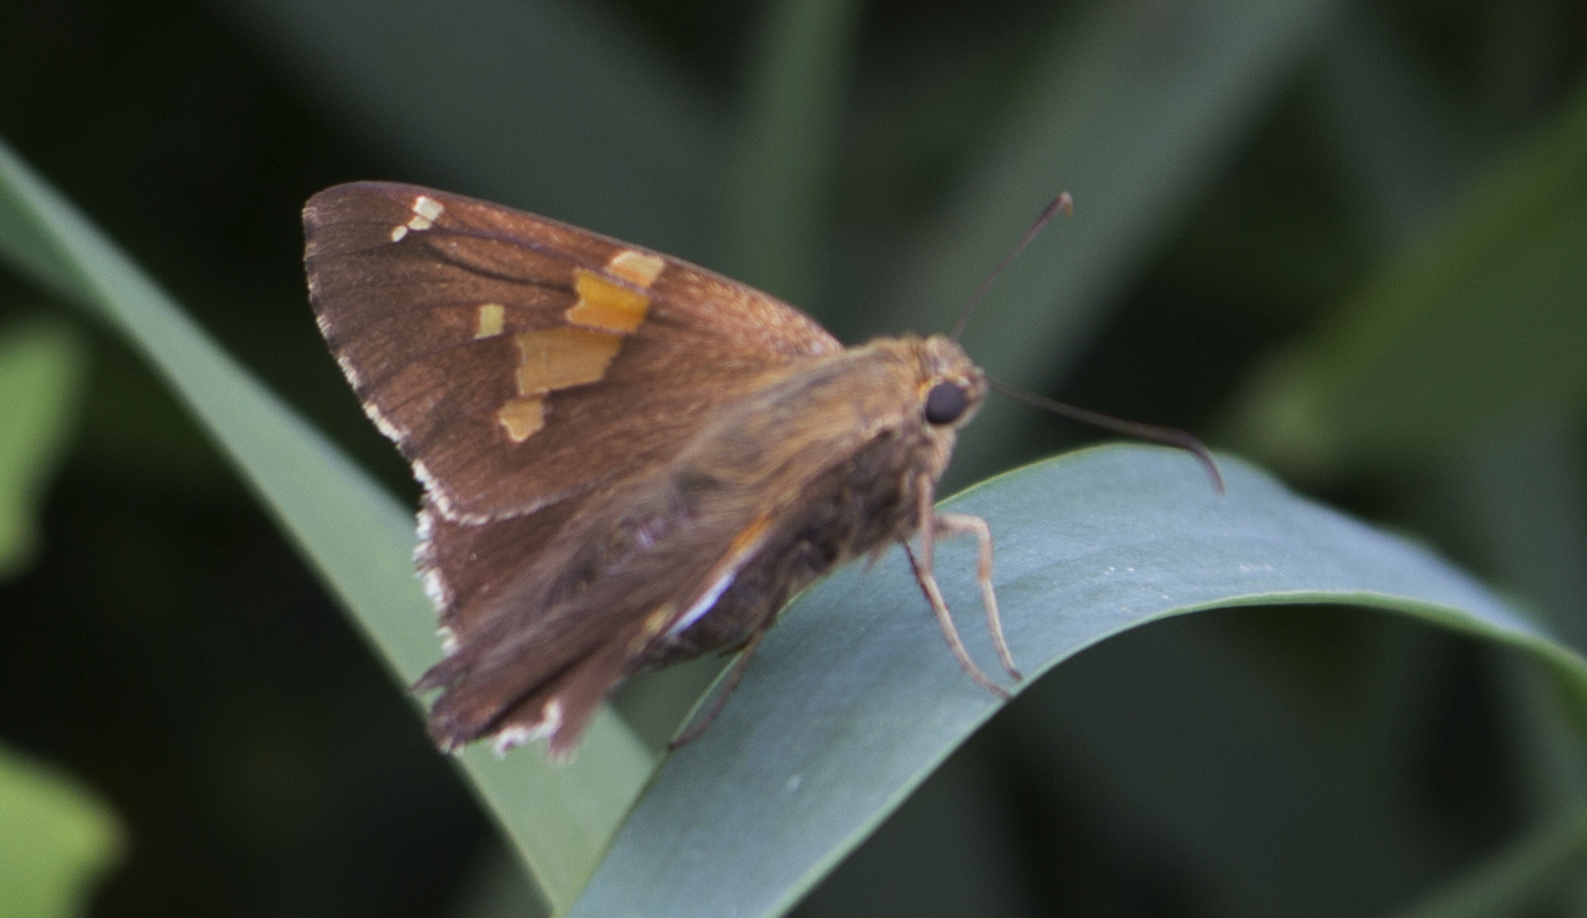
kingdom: Animalia
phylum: Arthropoda
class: Insecta
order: Lepidoptera
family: Hesperiidae
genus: Epargyreus
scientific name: Epargyreus clarus
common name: Silver-spotted skipper
